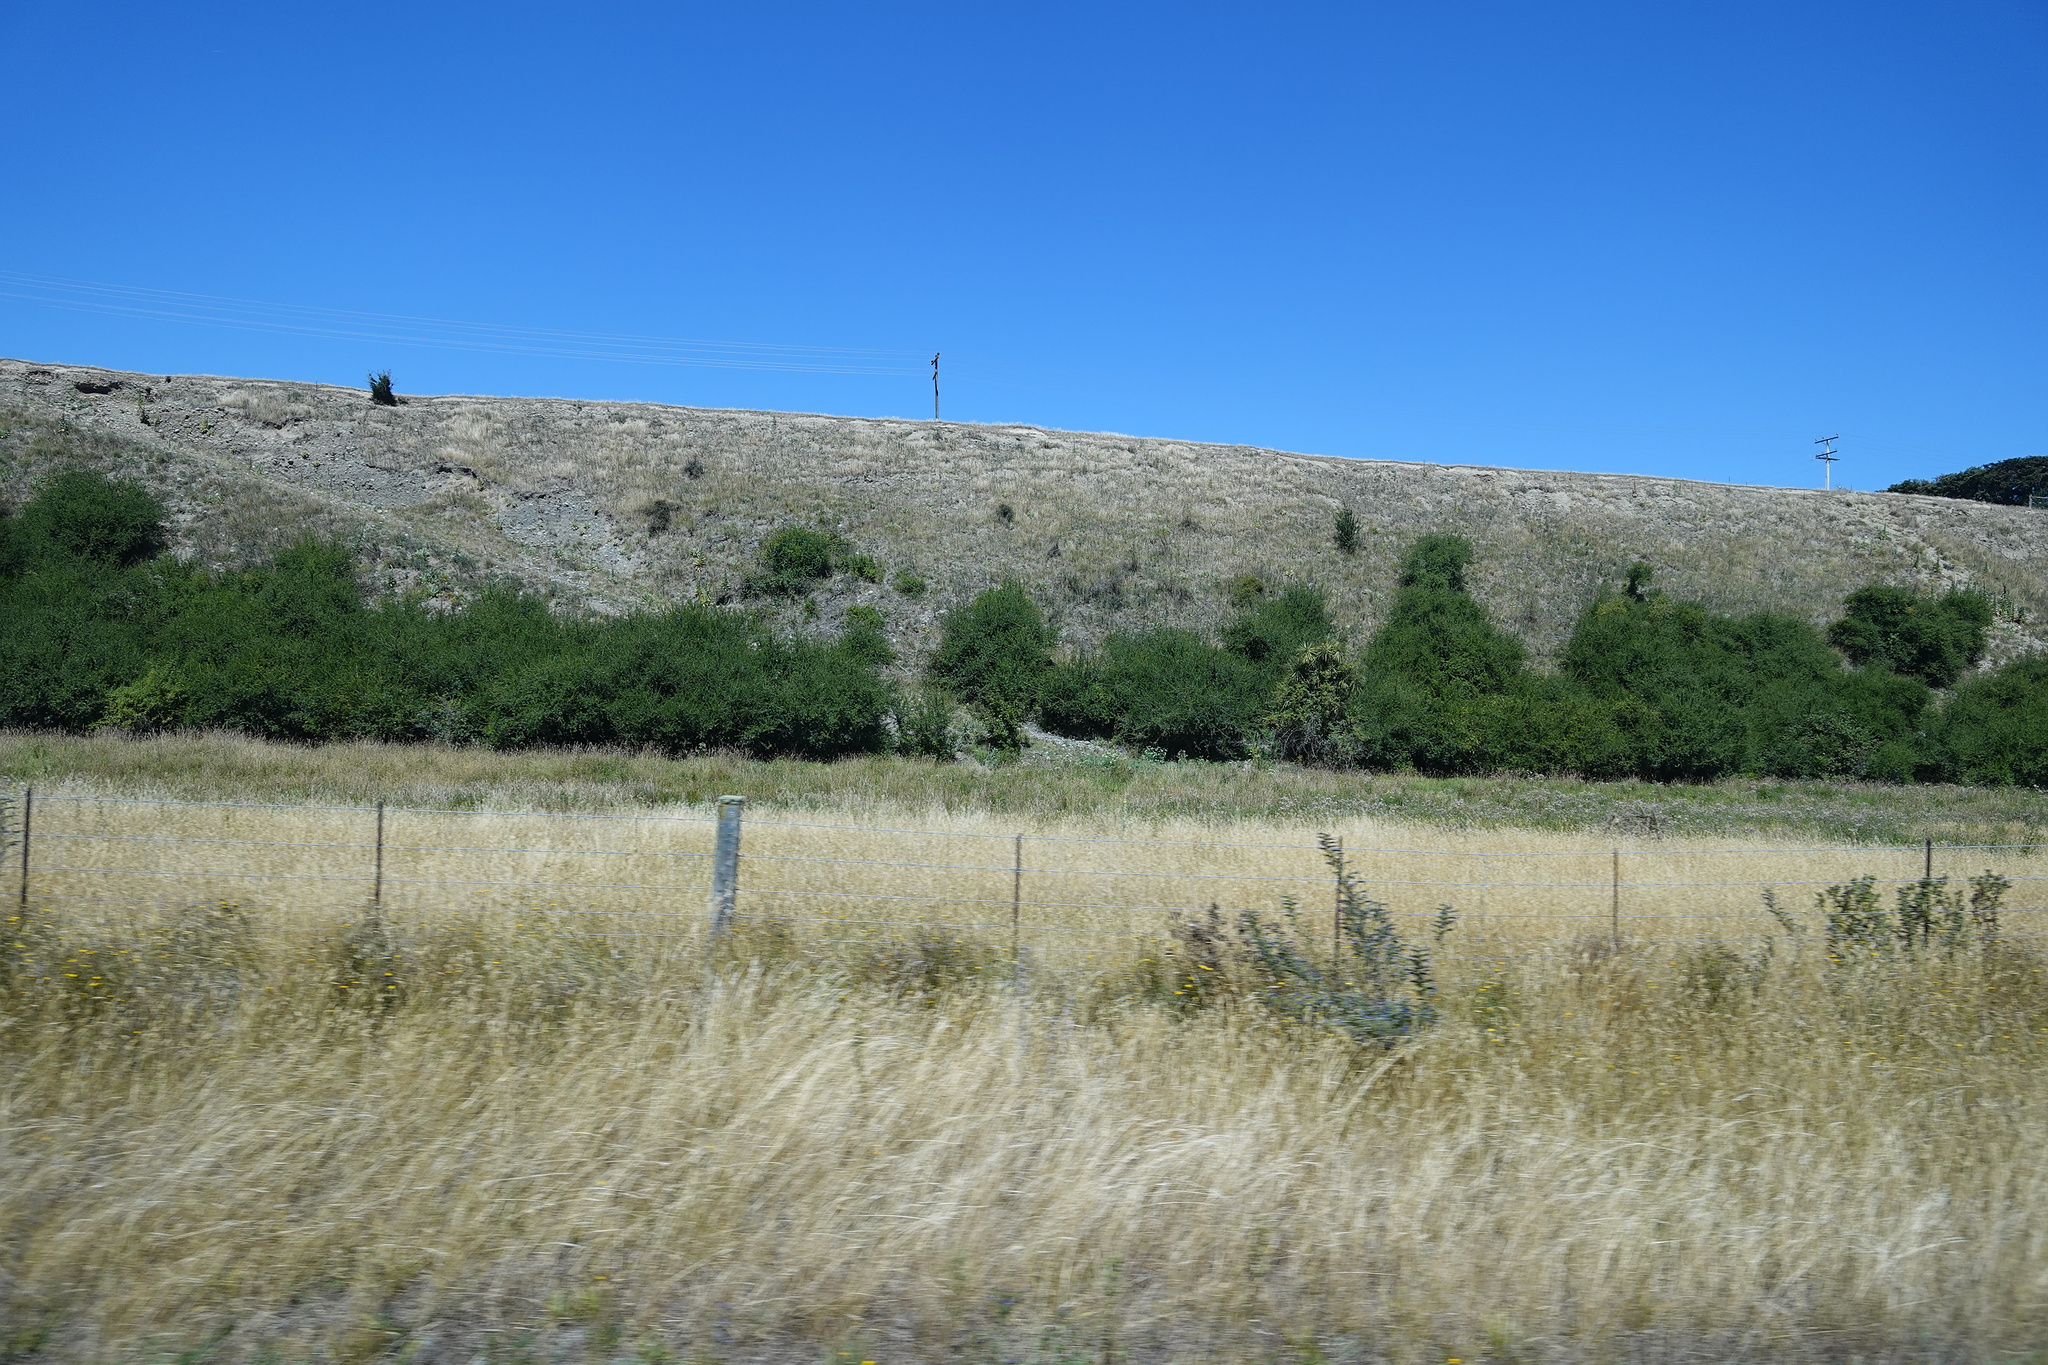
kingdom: Plantae
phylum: Tracheophyta
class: Liliopsida
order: Asparagales
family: Asparagaceae
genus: Cordyline
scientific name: Cordyline australis
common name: Cabbage-palm
